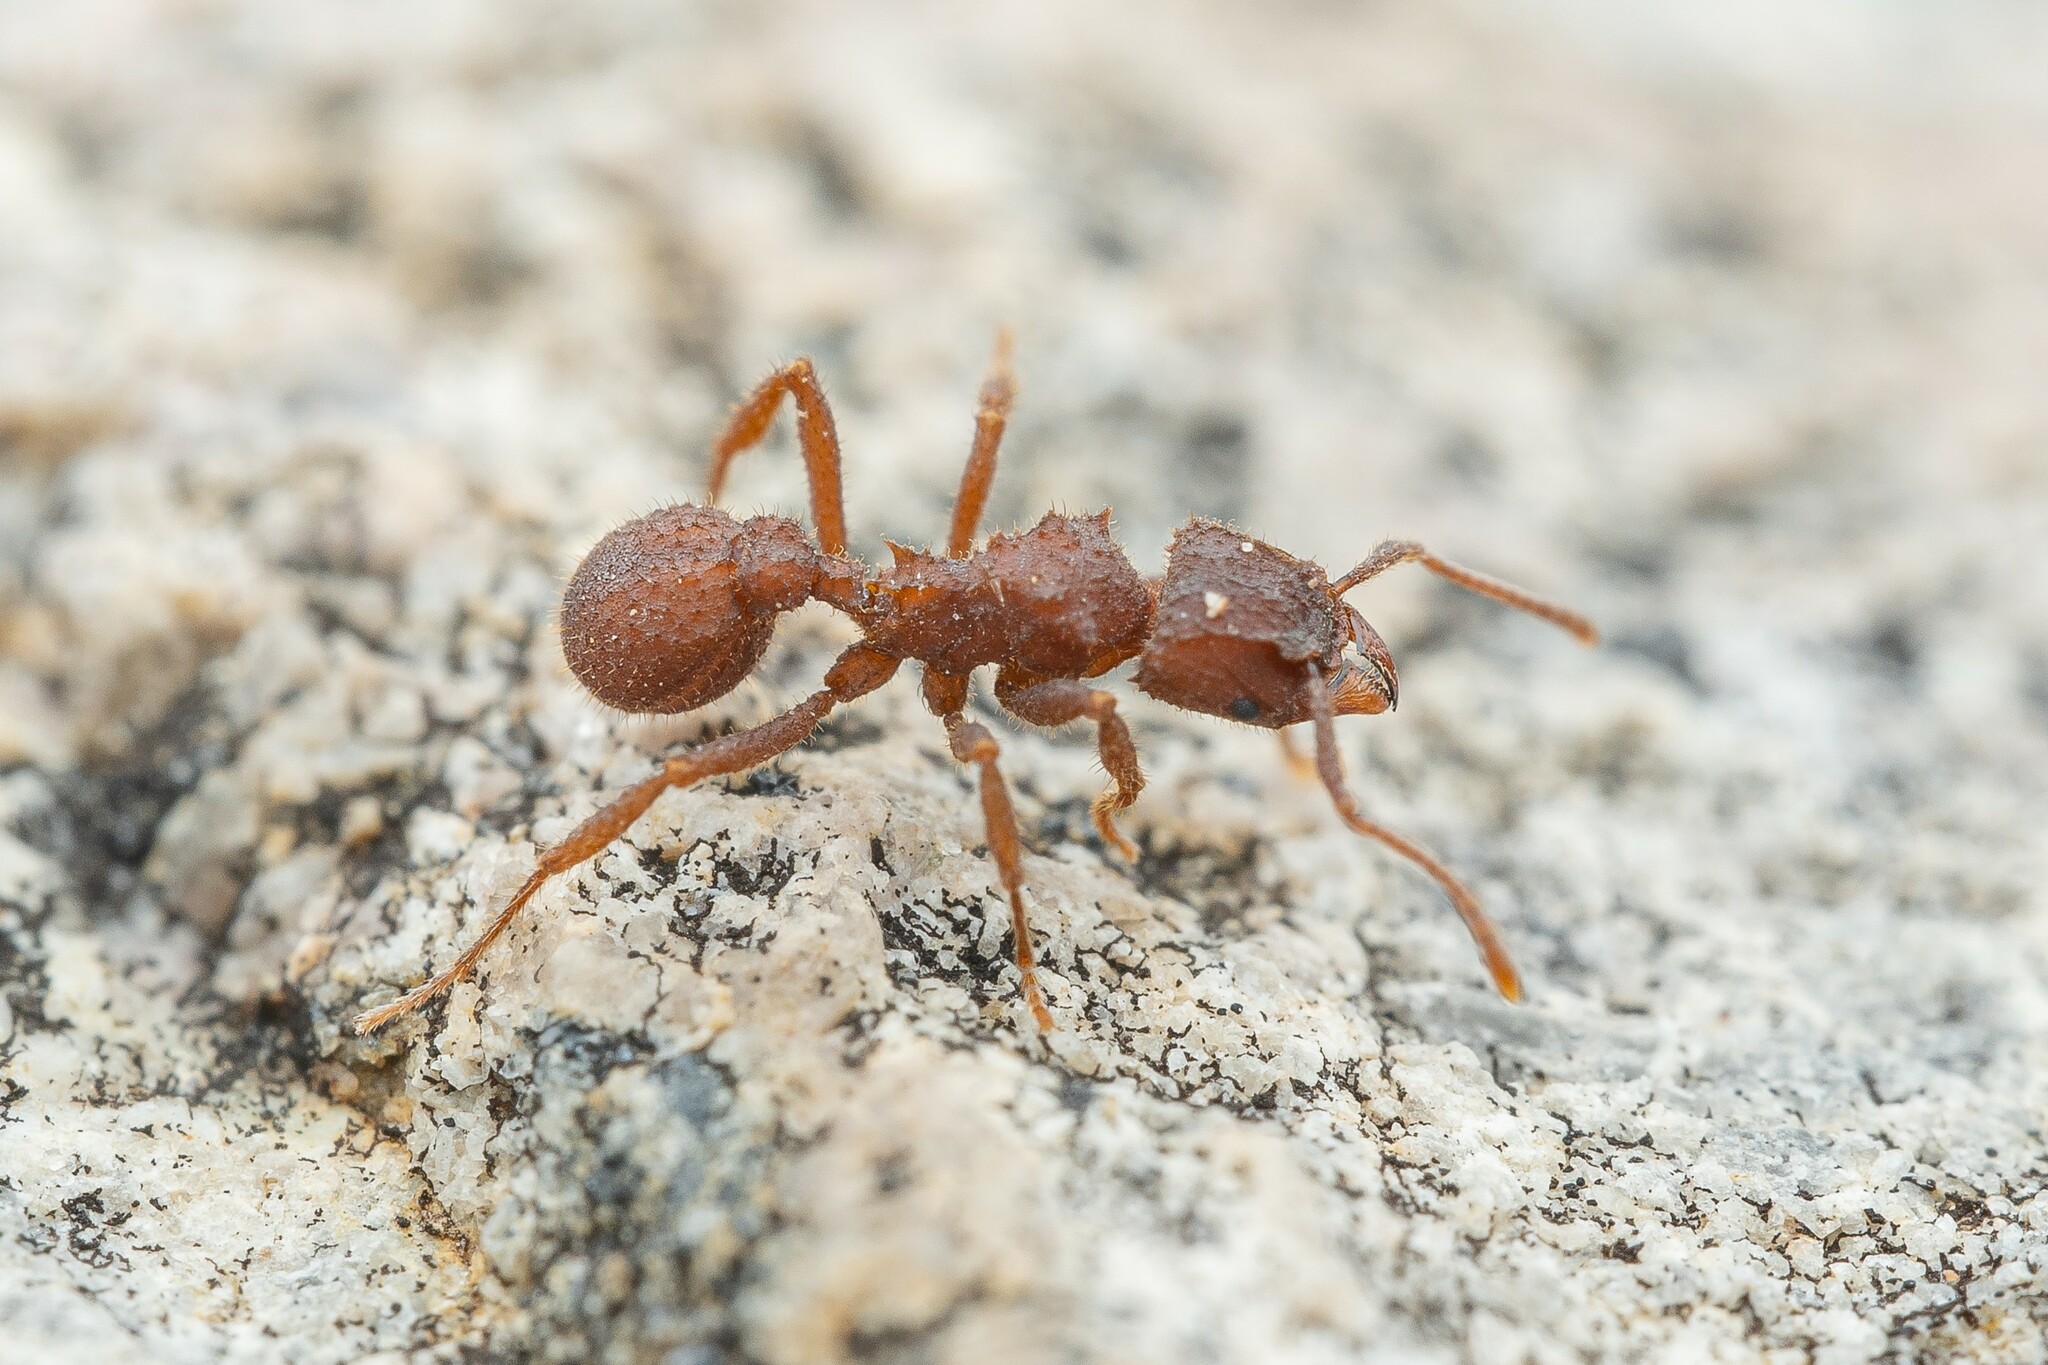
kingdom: Animalia
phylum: Arthropoda
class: Insecta
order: Hymenoptera
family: Formicidae
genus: Trachymyrmex
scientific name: Trachymyrmex pomonae
